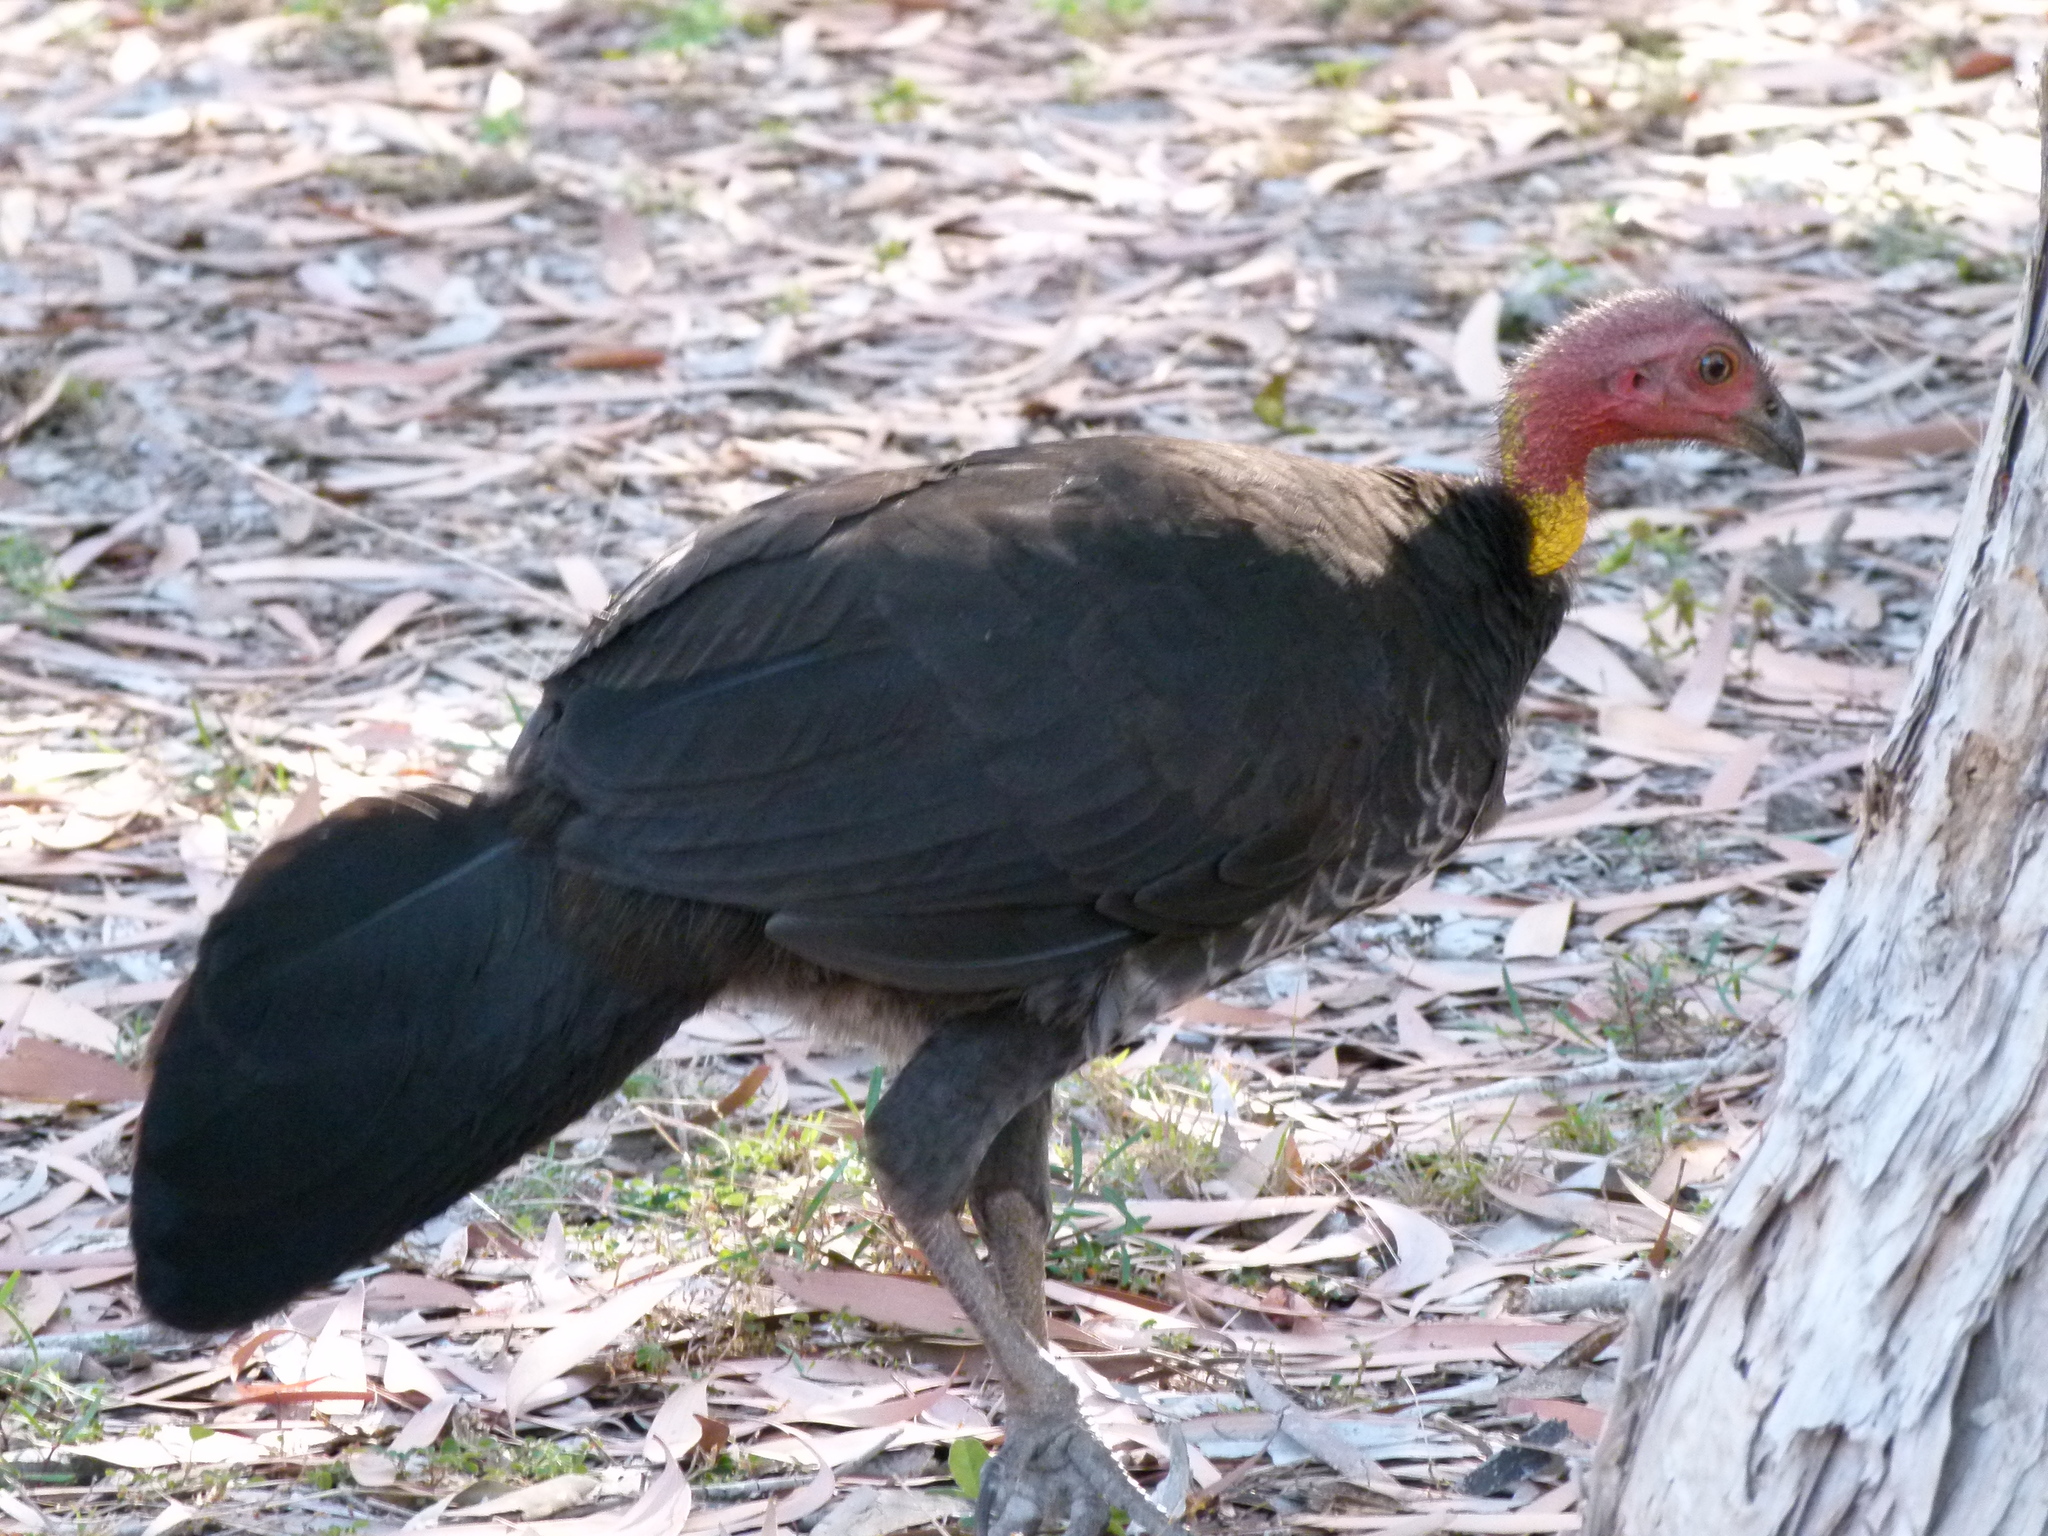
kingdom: Animalia
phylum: Chordata
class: Aves
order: Galliformes
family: Megapodiidae
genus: Alectura
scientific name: Alectura lathami
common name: Australian brushturkey
